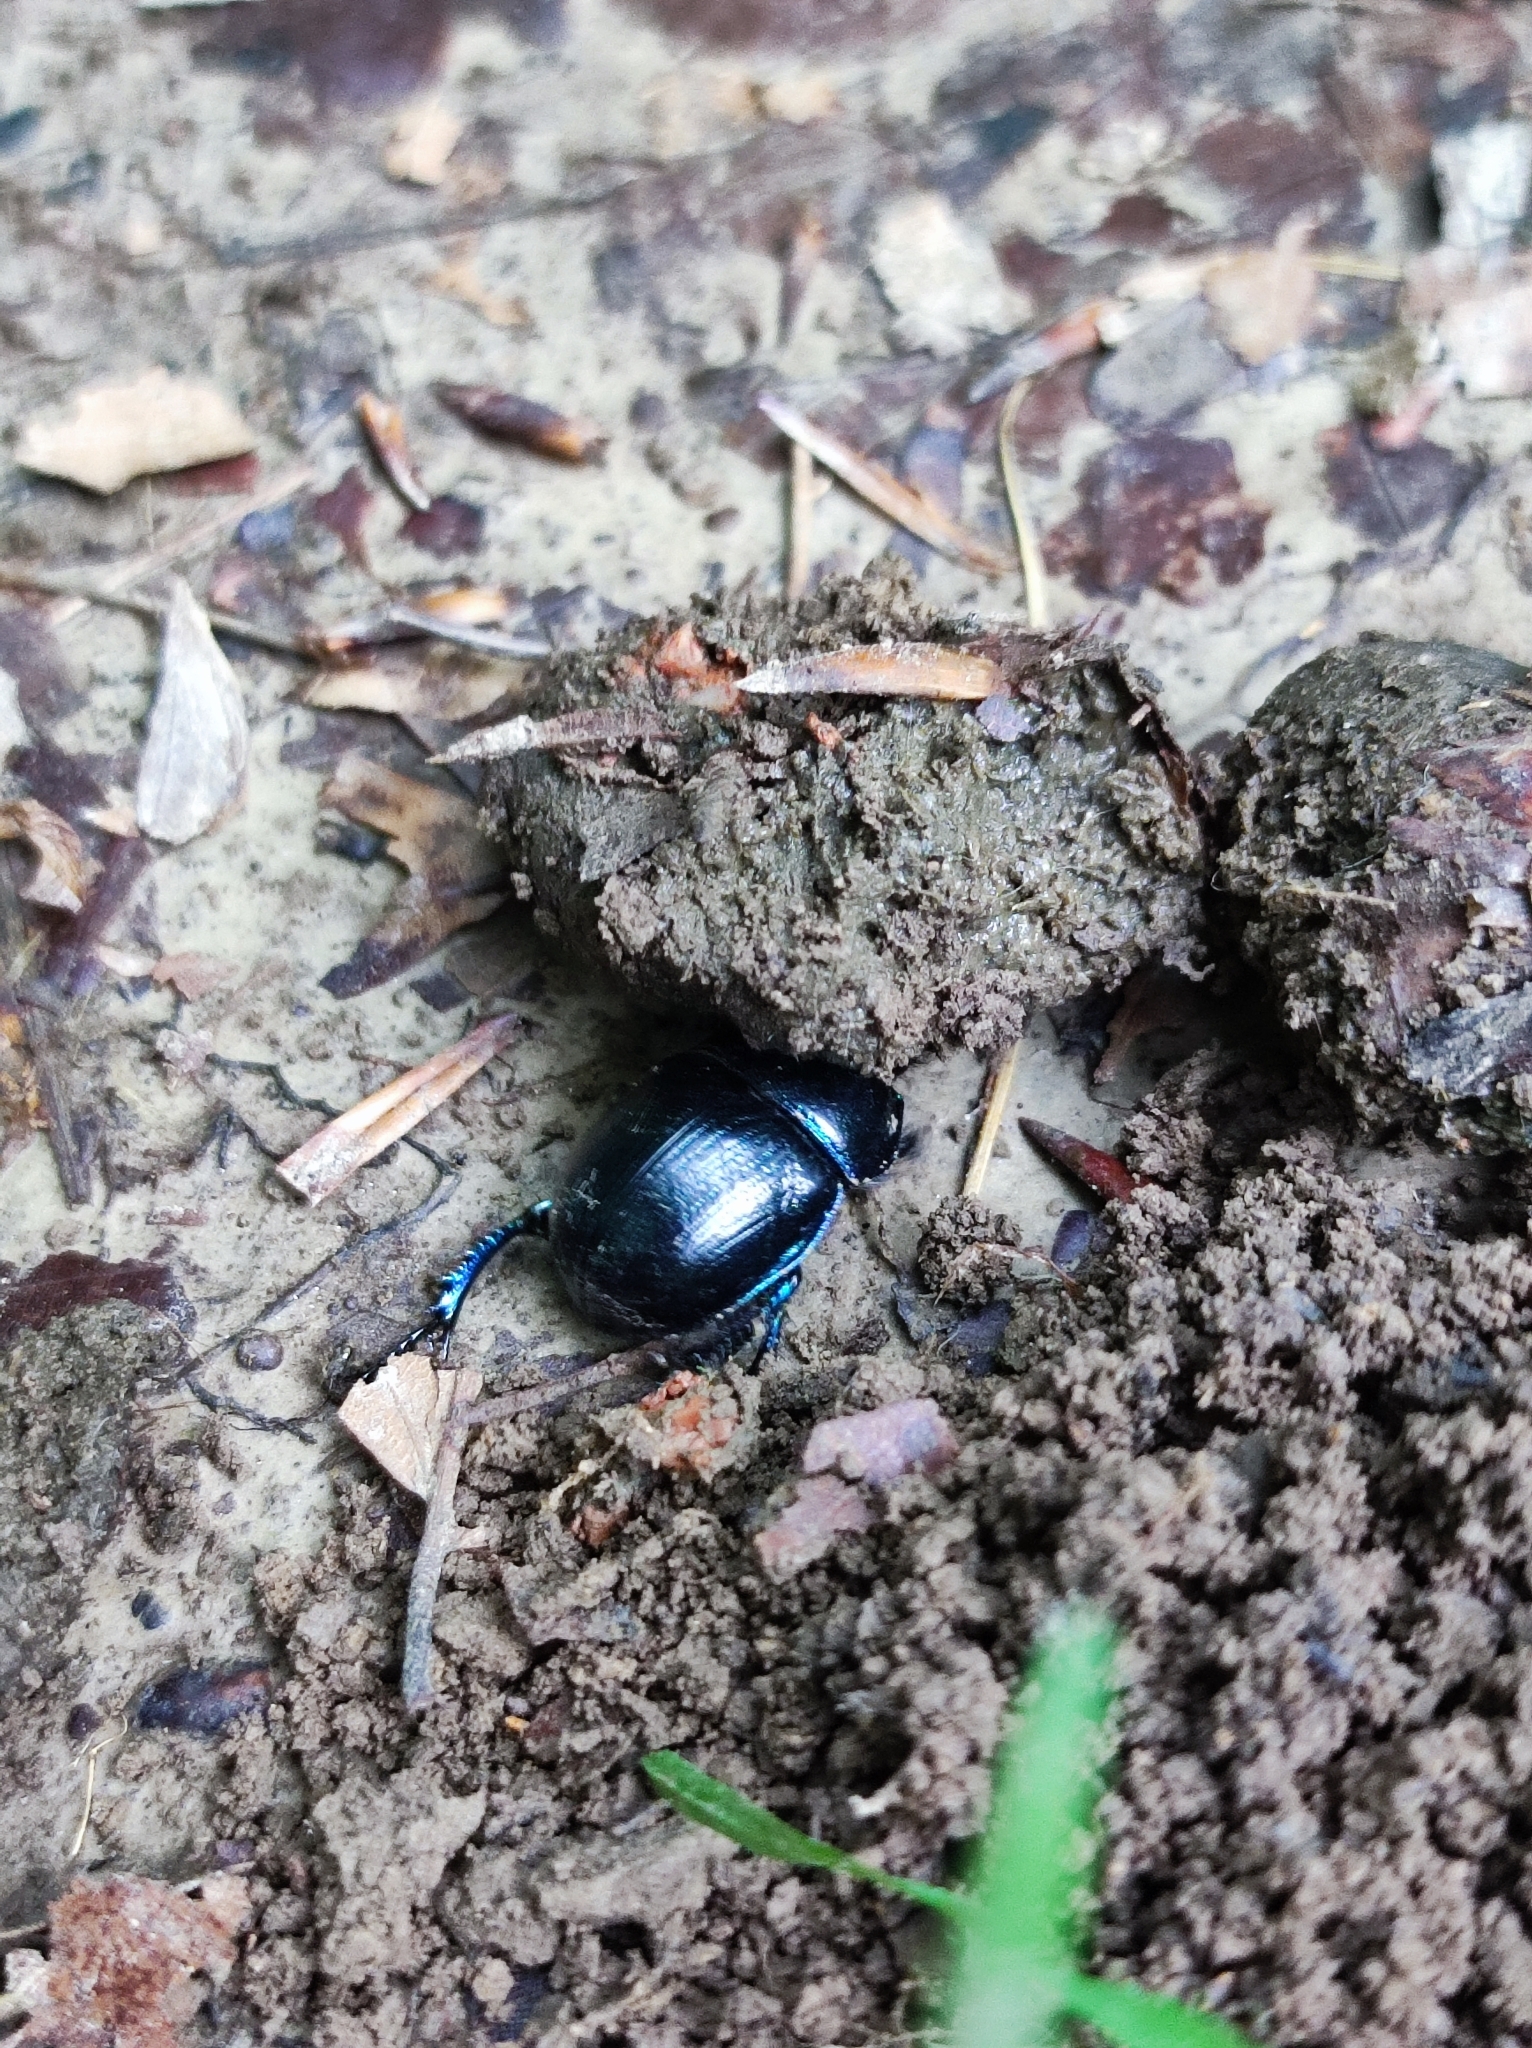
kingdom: Animalia
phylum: Arthropoda
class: Insecta
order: Coleoptera
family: Geotrupidae
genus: Anoplotrupes
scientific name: Anoplotrupes stercorosus
